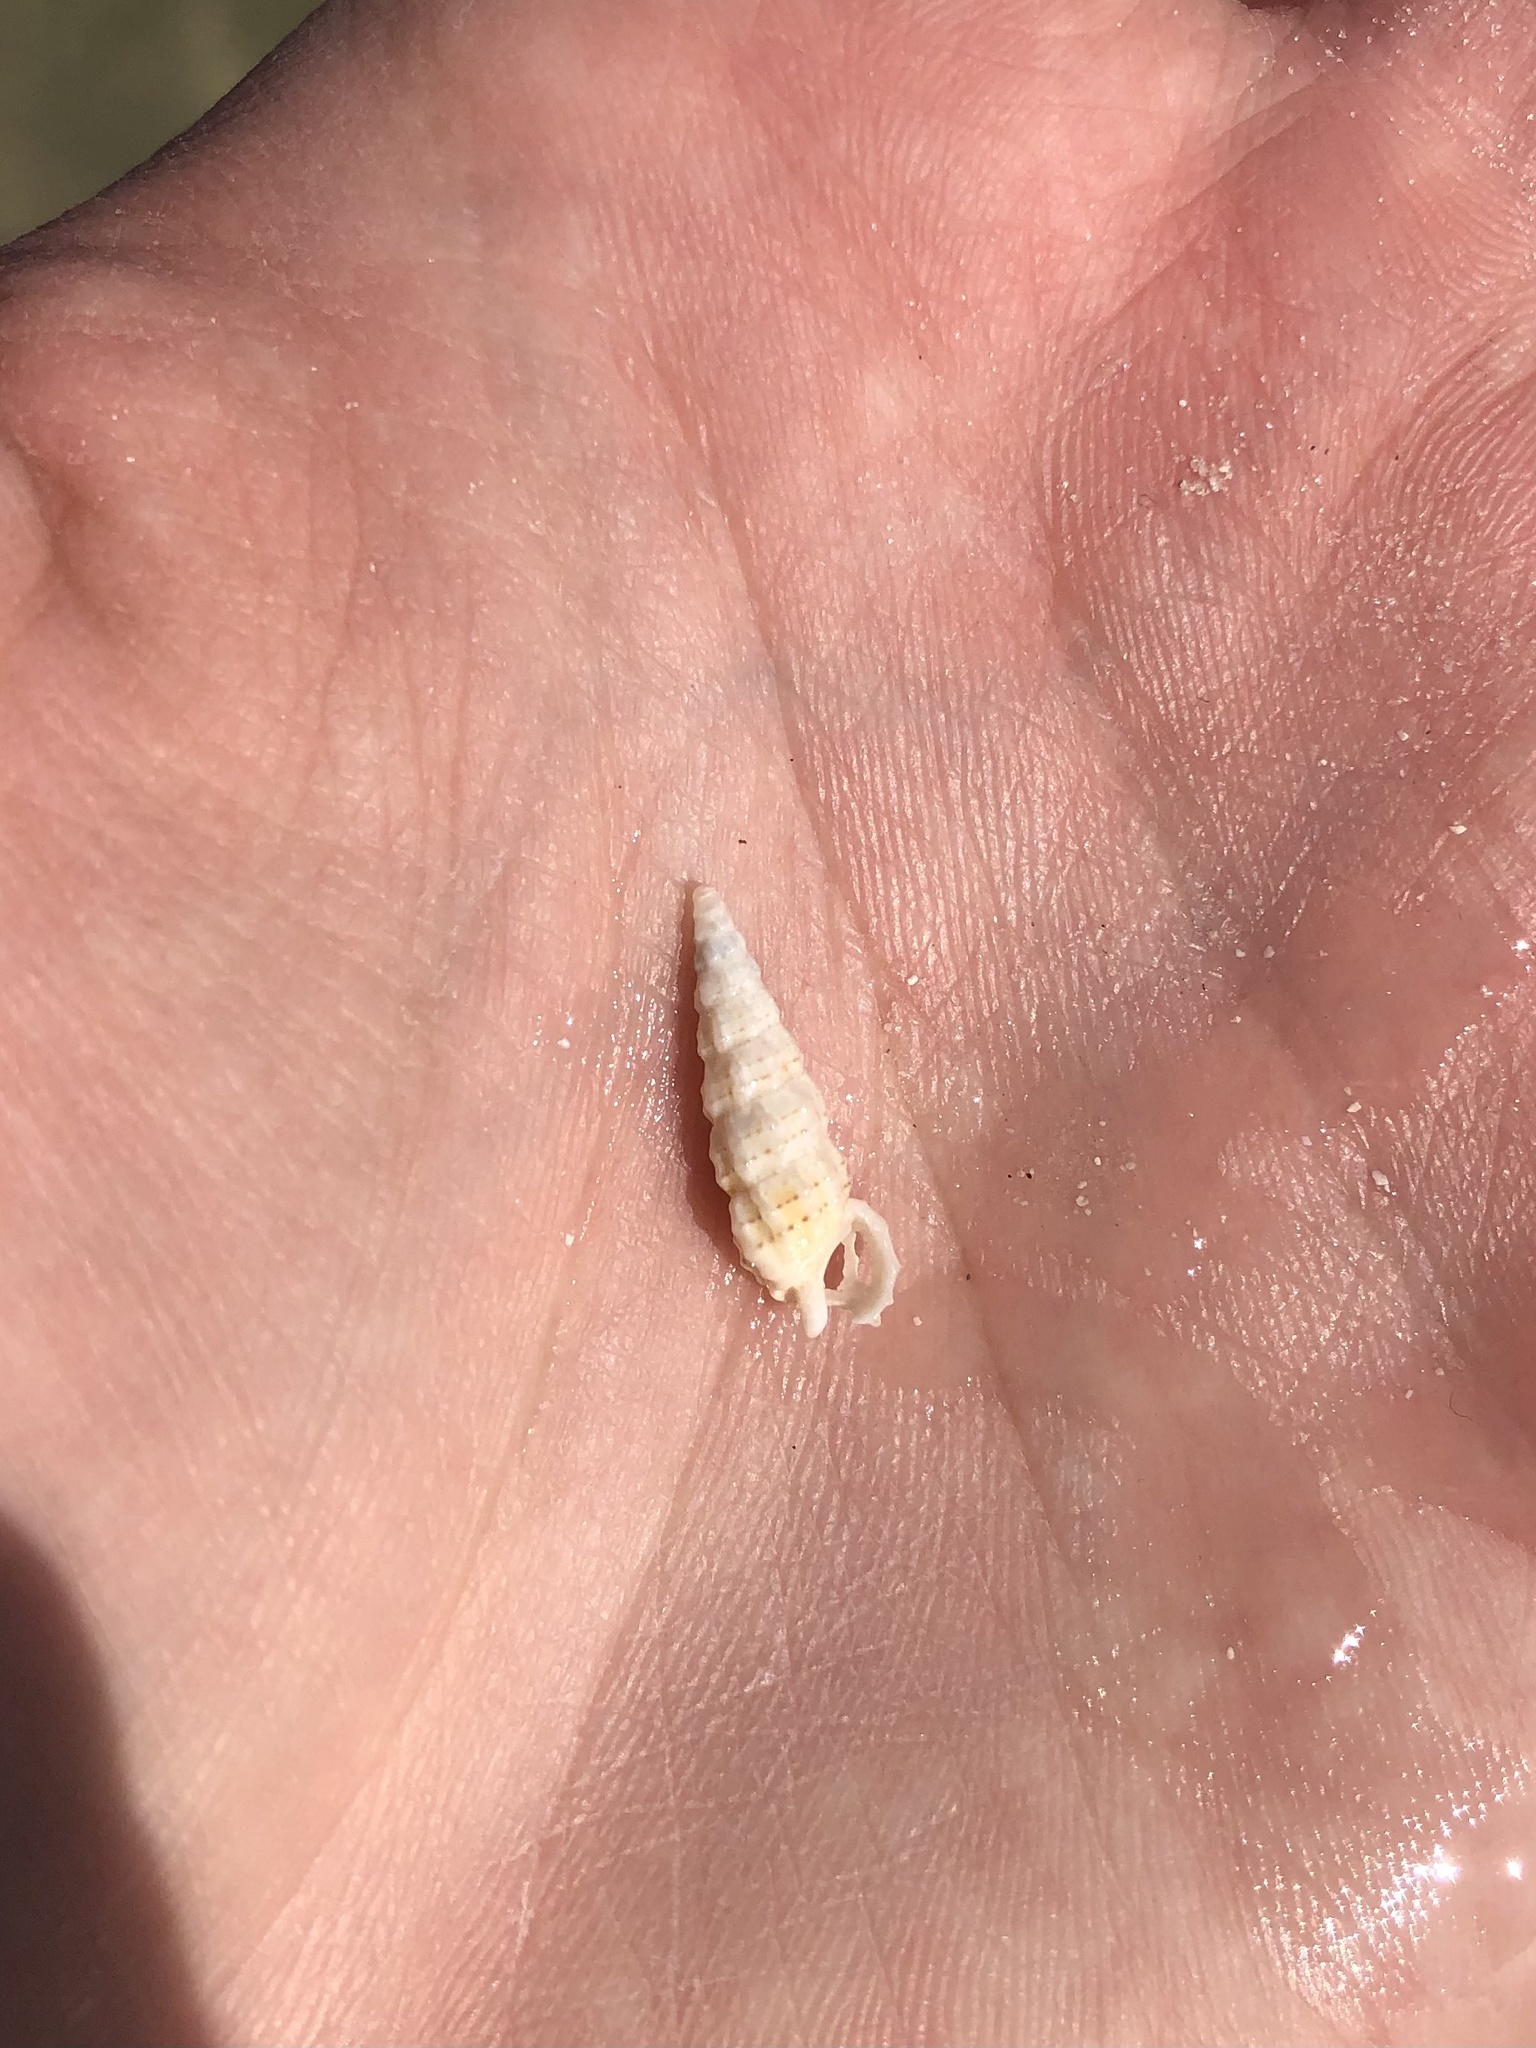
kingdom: Animalia
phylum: Mollusca
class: Gastropoda
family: Cerithiidae
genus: Cerithium
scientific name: Cerithium muscarum
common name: Fly-specked cerith
